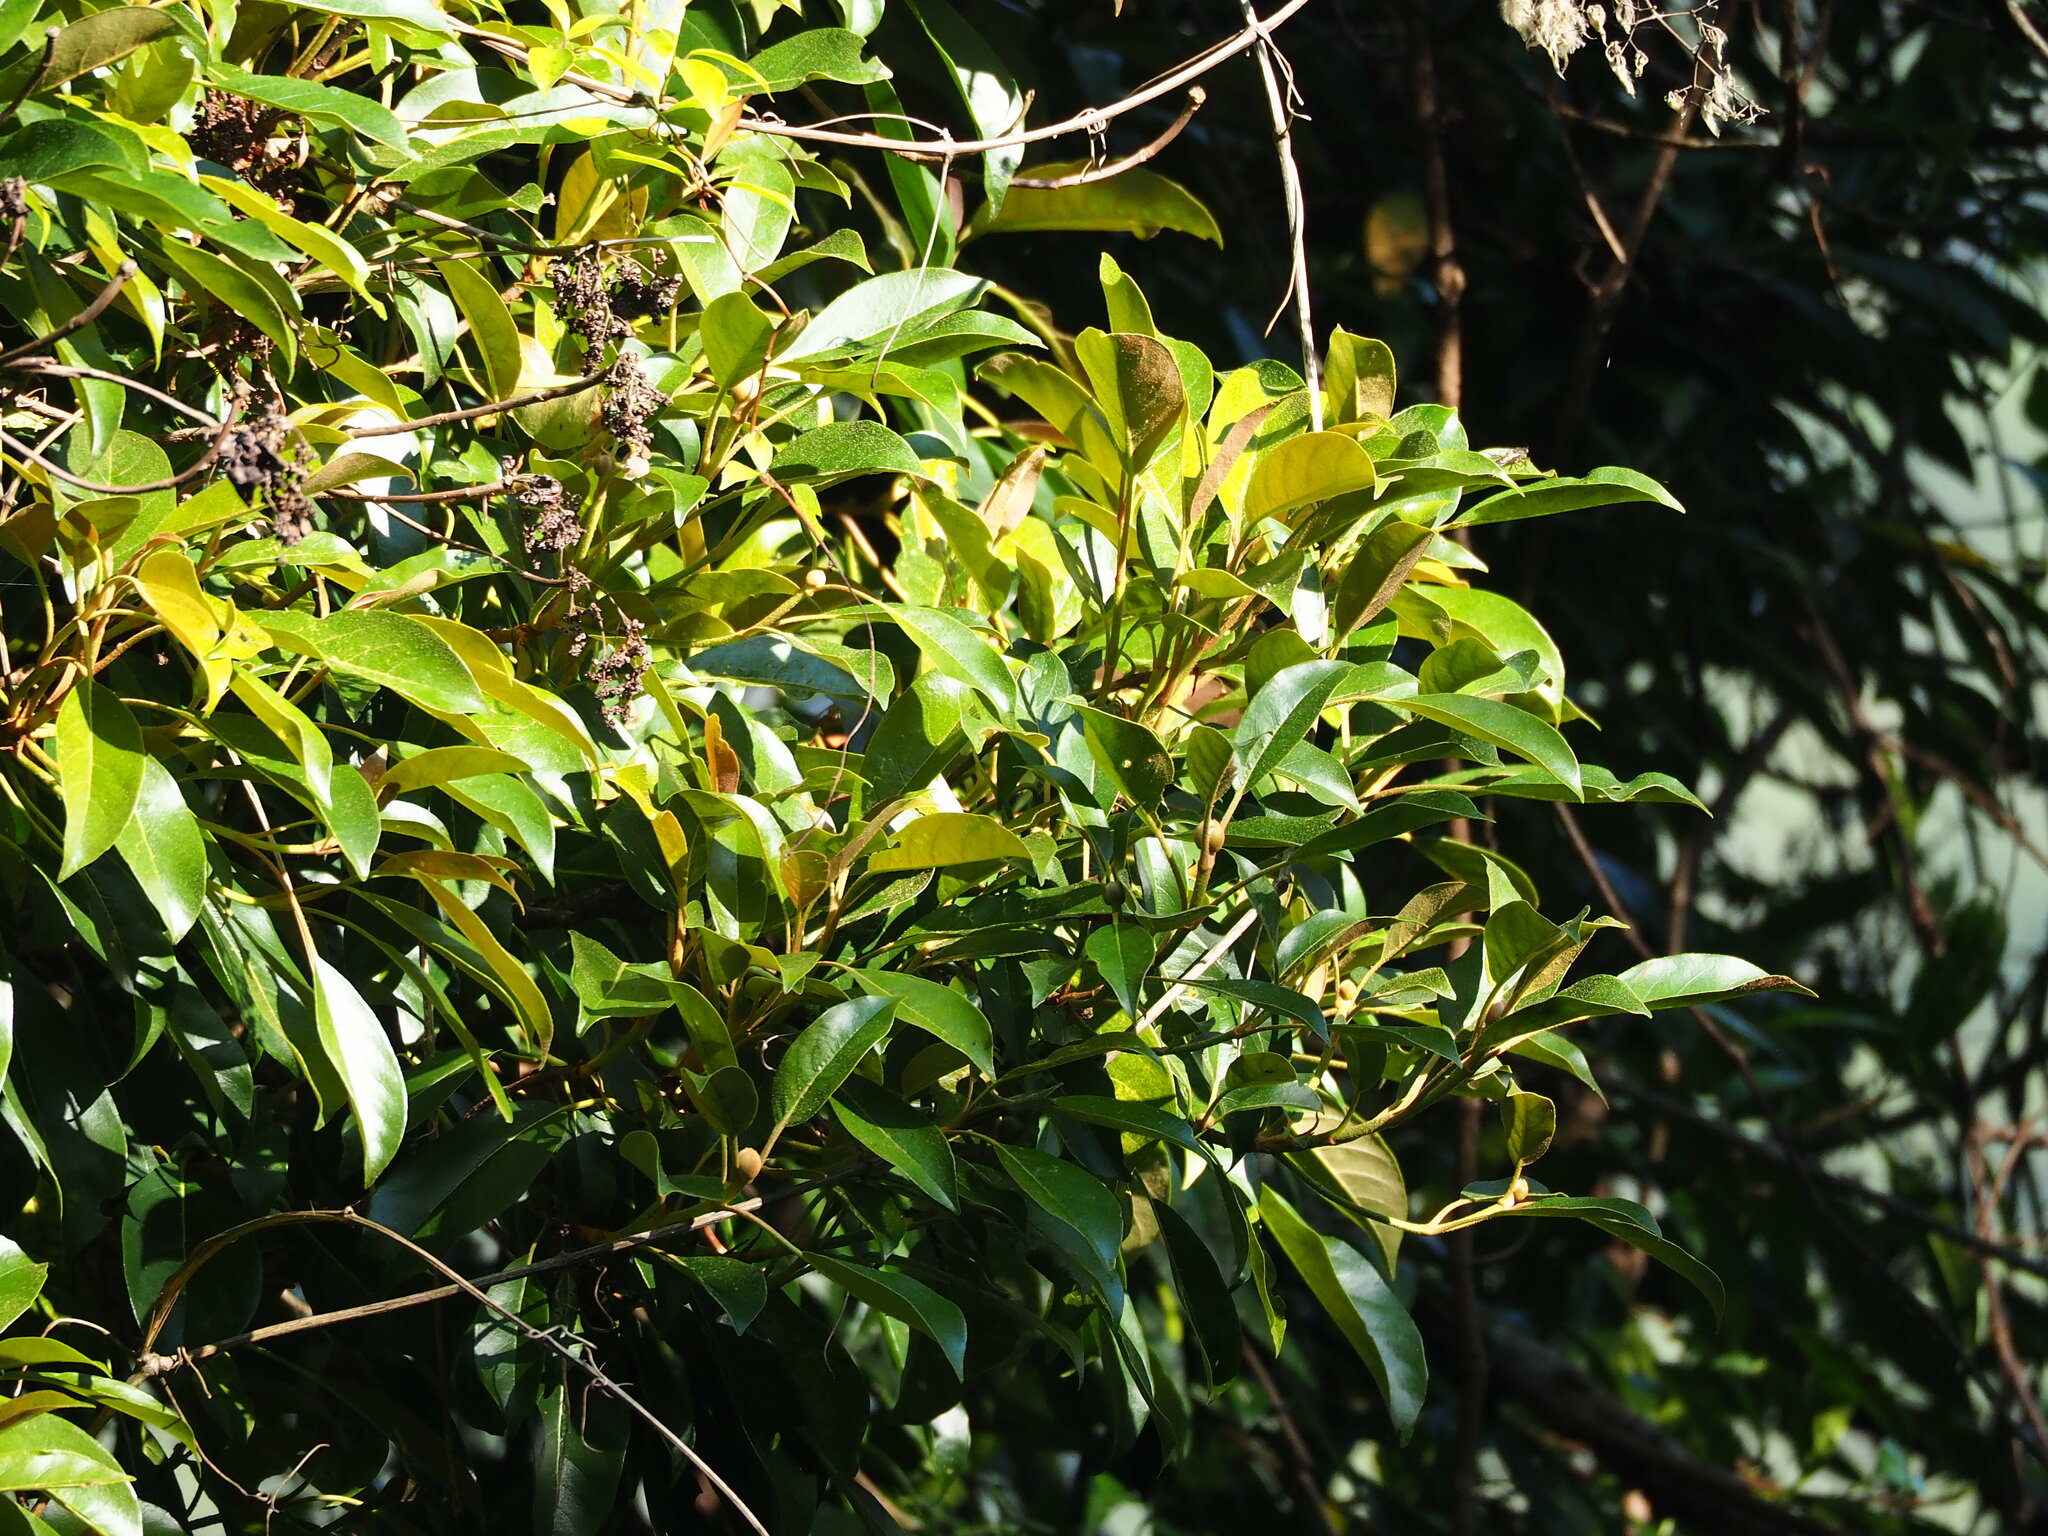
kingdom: Plantae
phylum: Tracheophyta
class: Magnoliopsida
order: Cornales
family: Hydrangeaceae
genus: Hydrangea
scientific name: Hydrangea integrifolia
